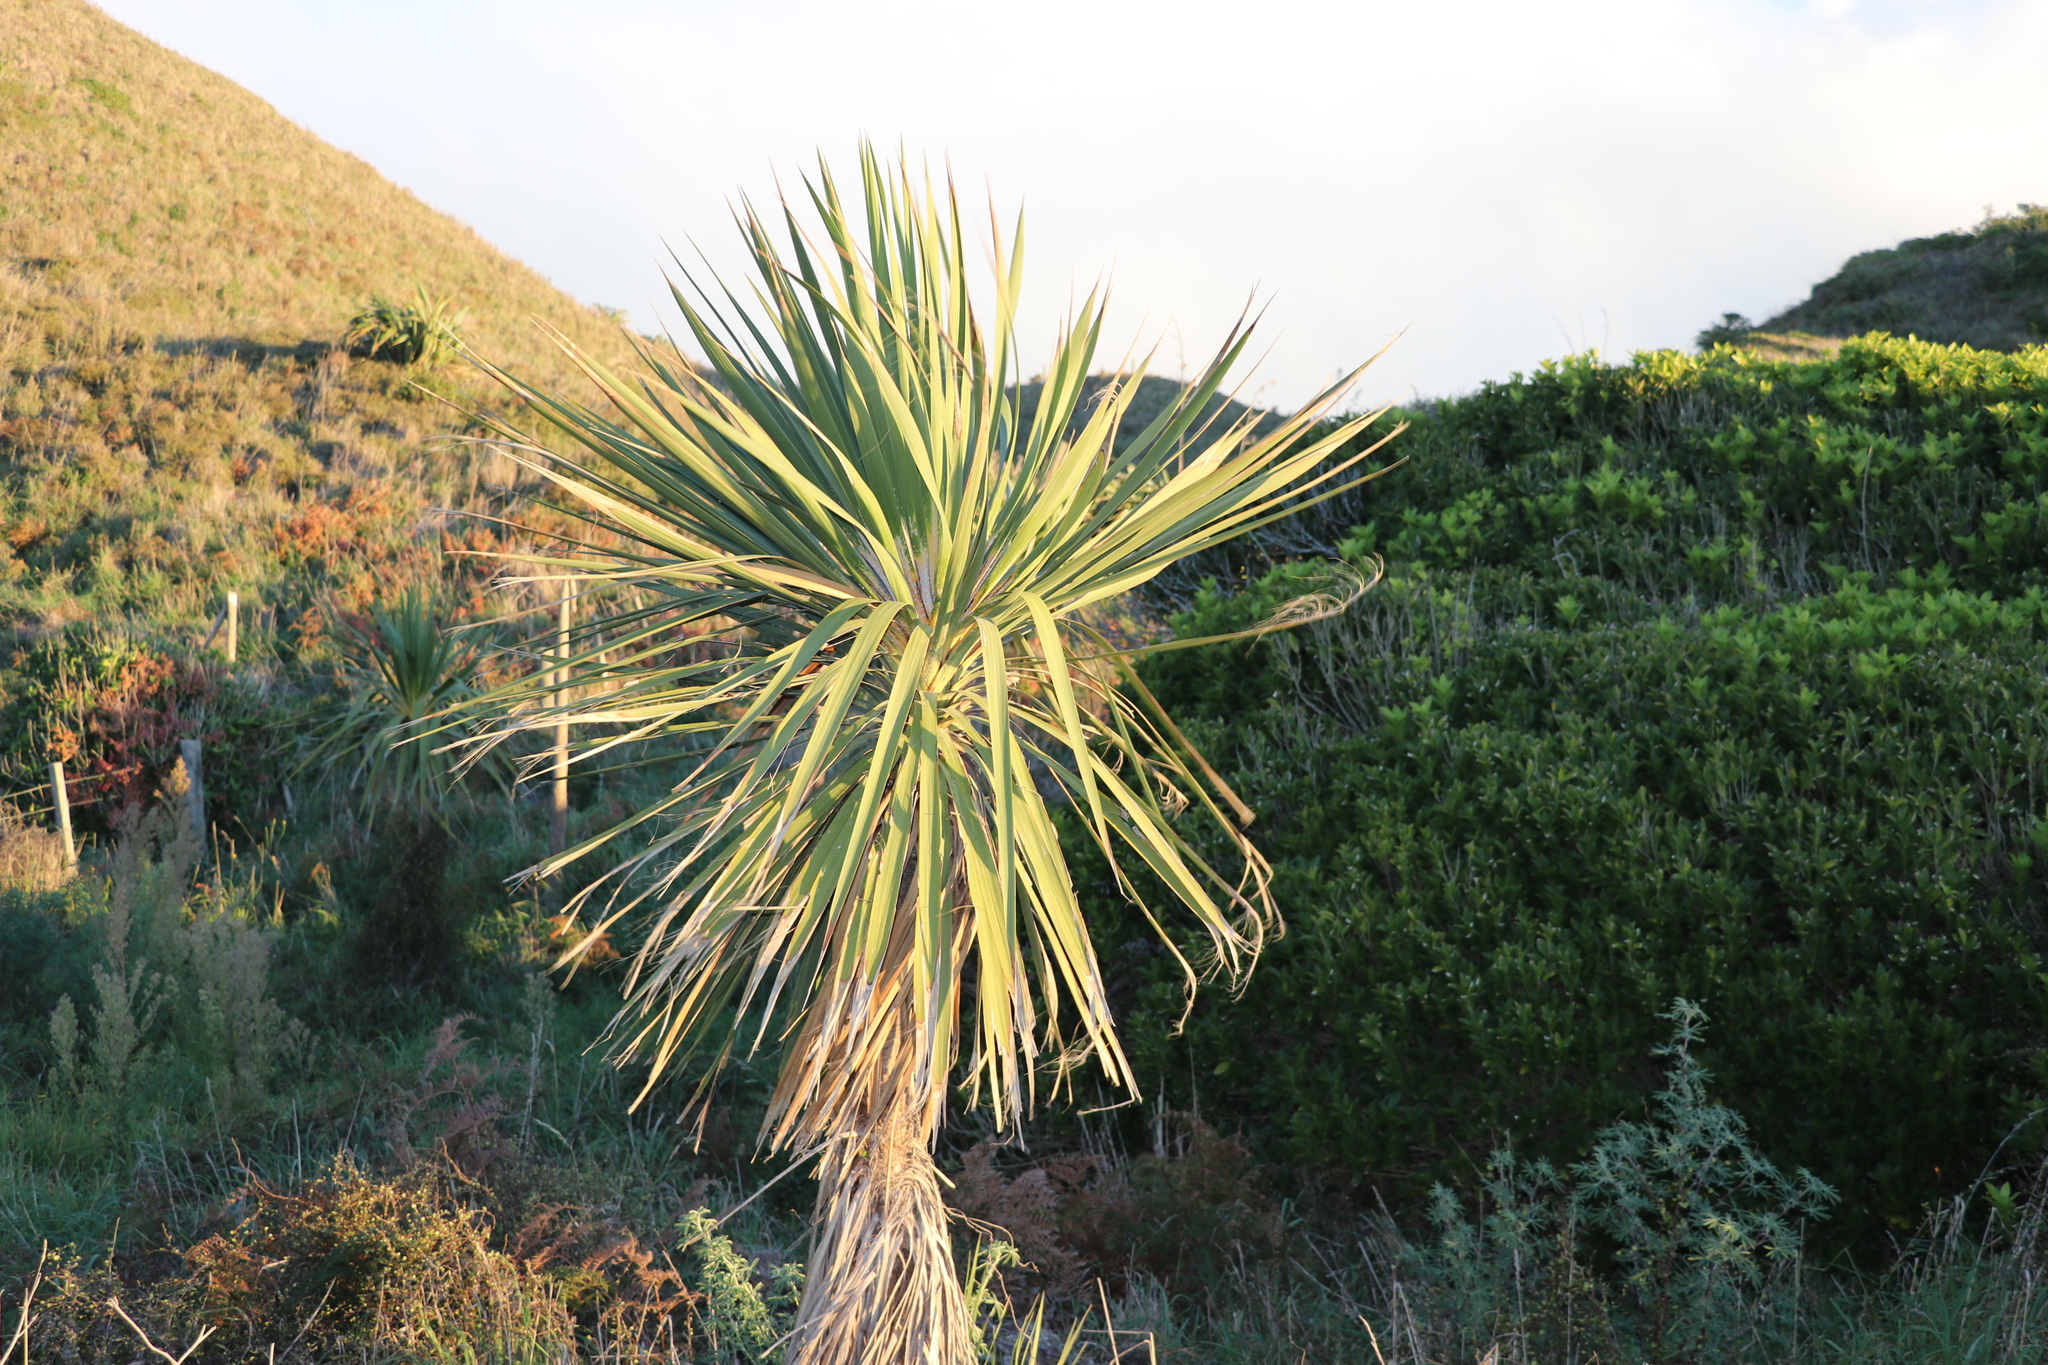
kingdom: Plantae
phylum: Tracheophyta
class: Liliopsida
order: Asparagales
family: Asparagaceae
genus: Cordyline
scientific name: Cordyline australis
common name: Cabbage-palm
